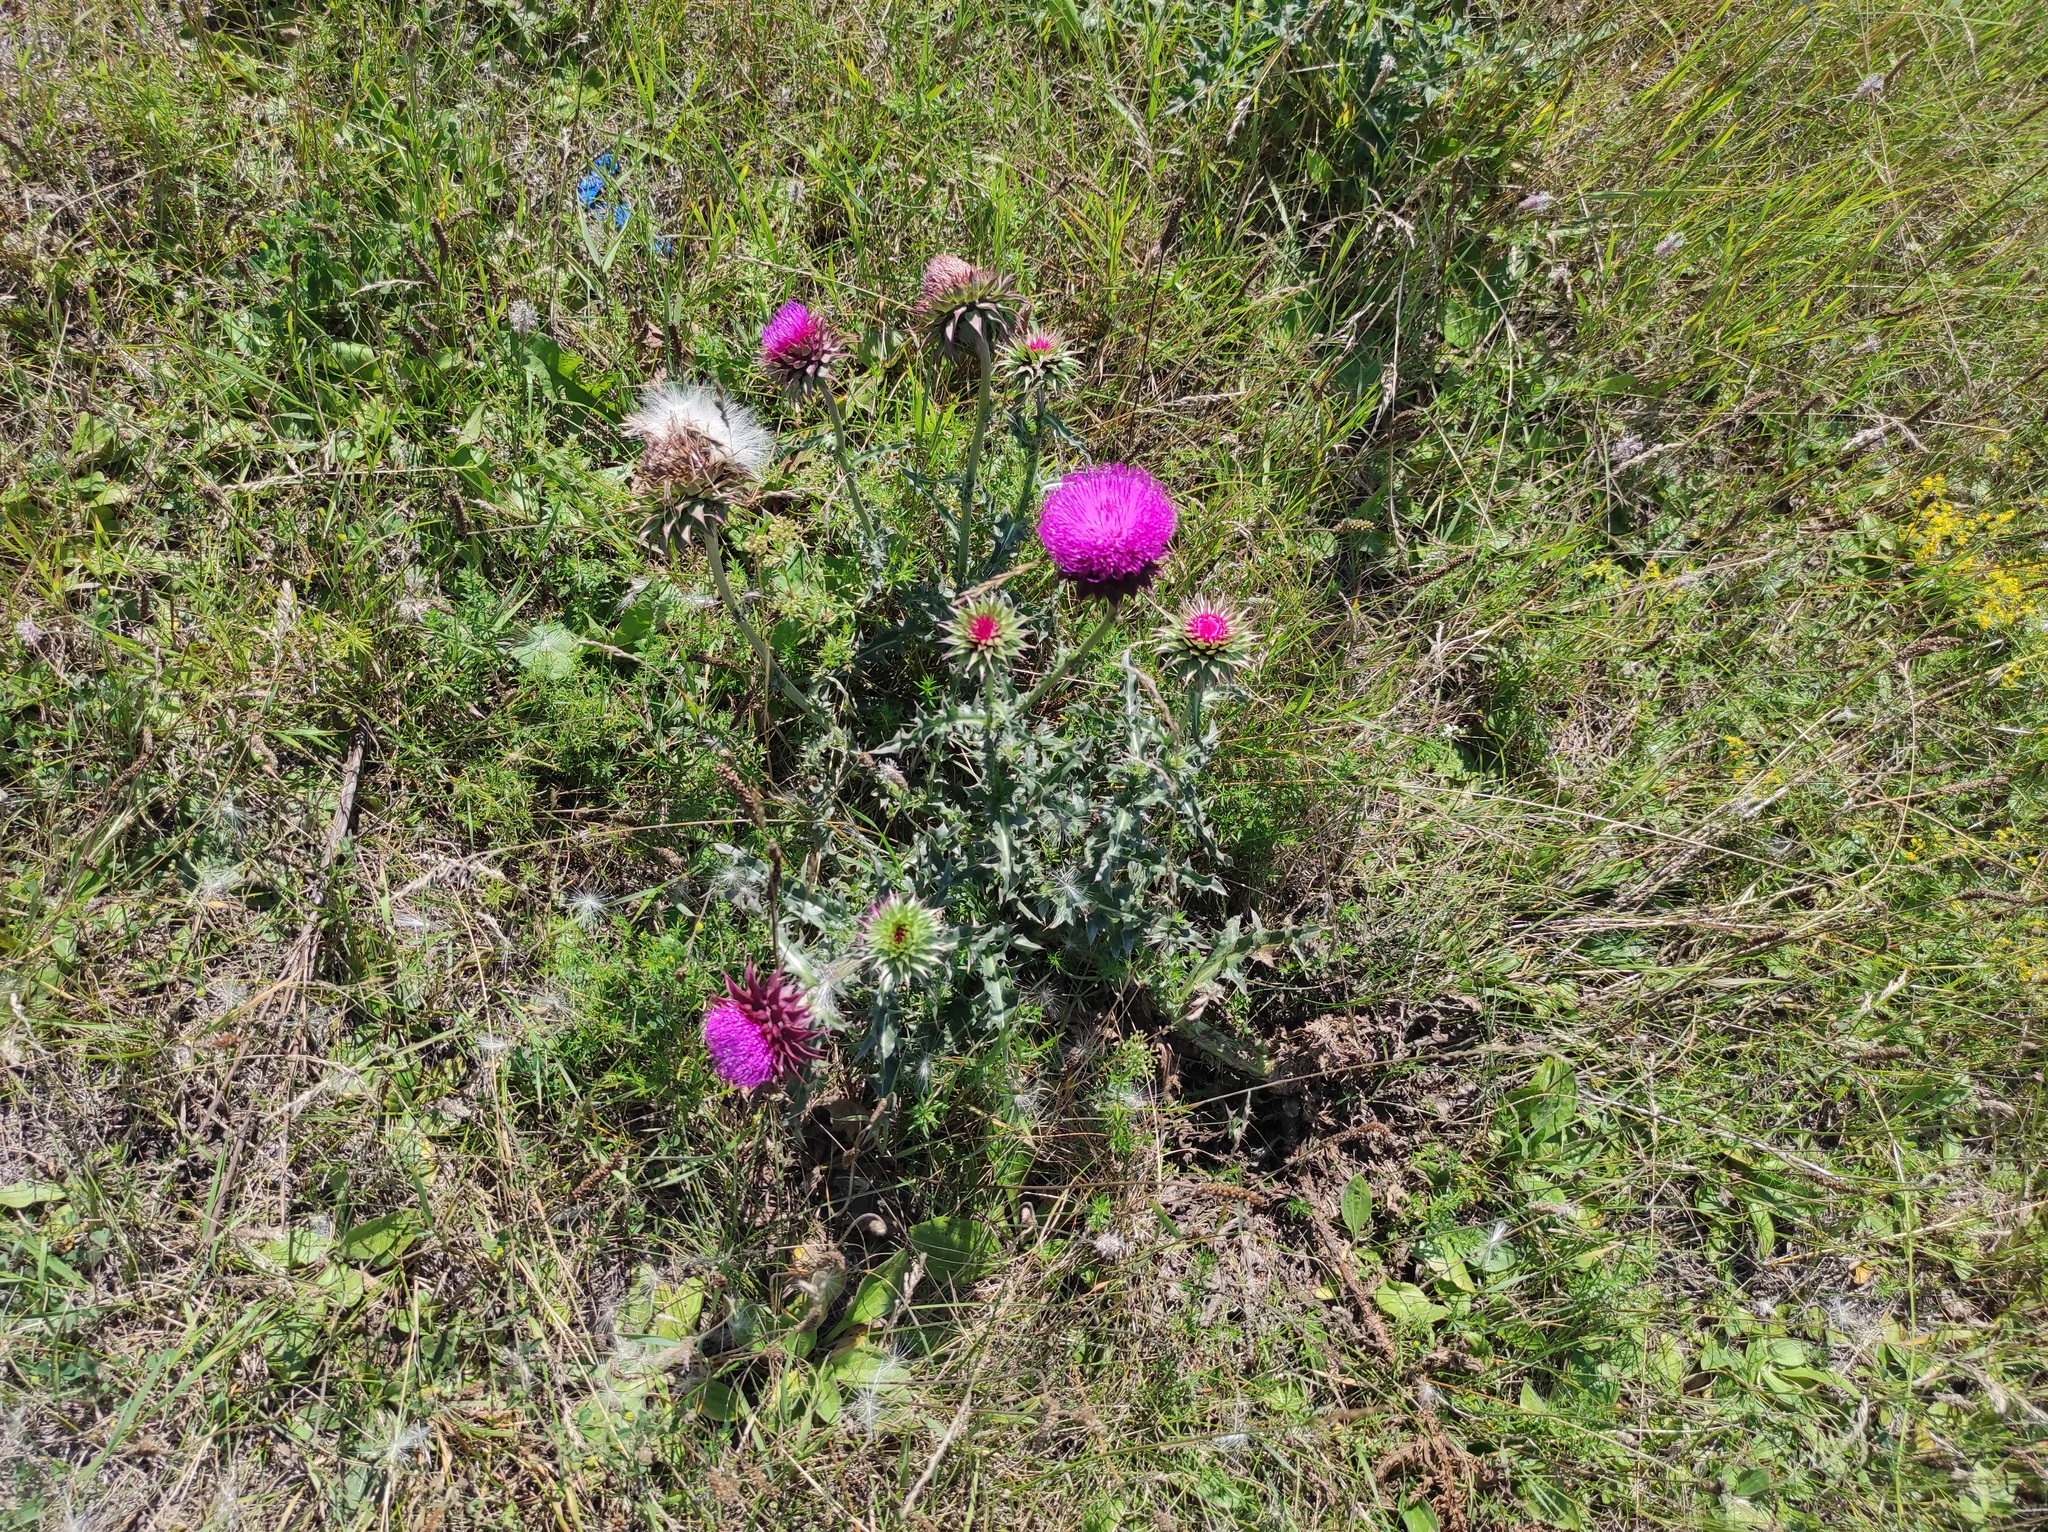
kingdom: Plantae
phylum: Tracheophyta
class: Magnoliopsida
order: Asterales
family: Asteraceae
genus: Carduus
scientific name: Carduus nutans
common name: Musk thistle
